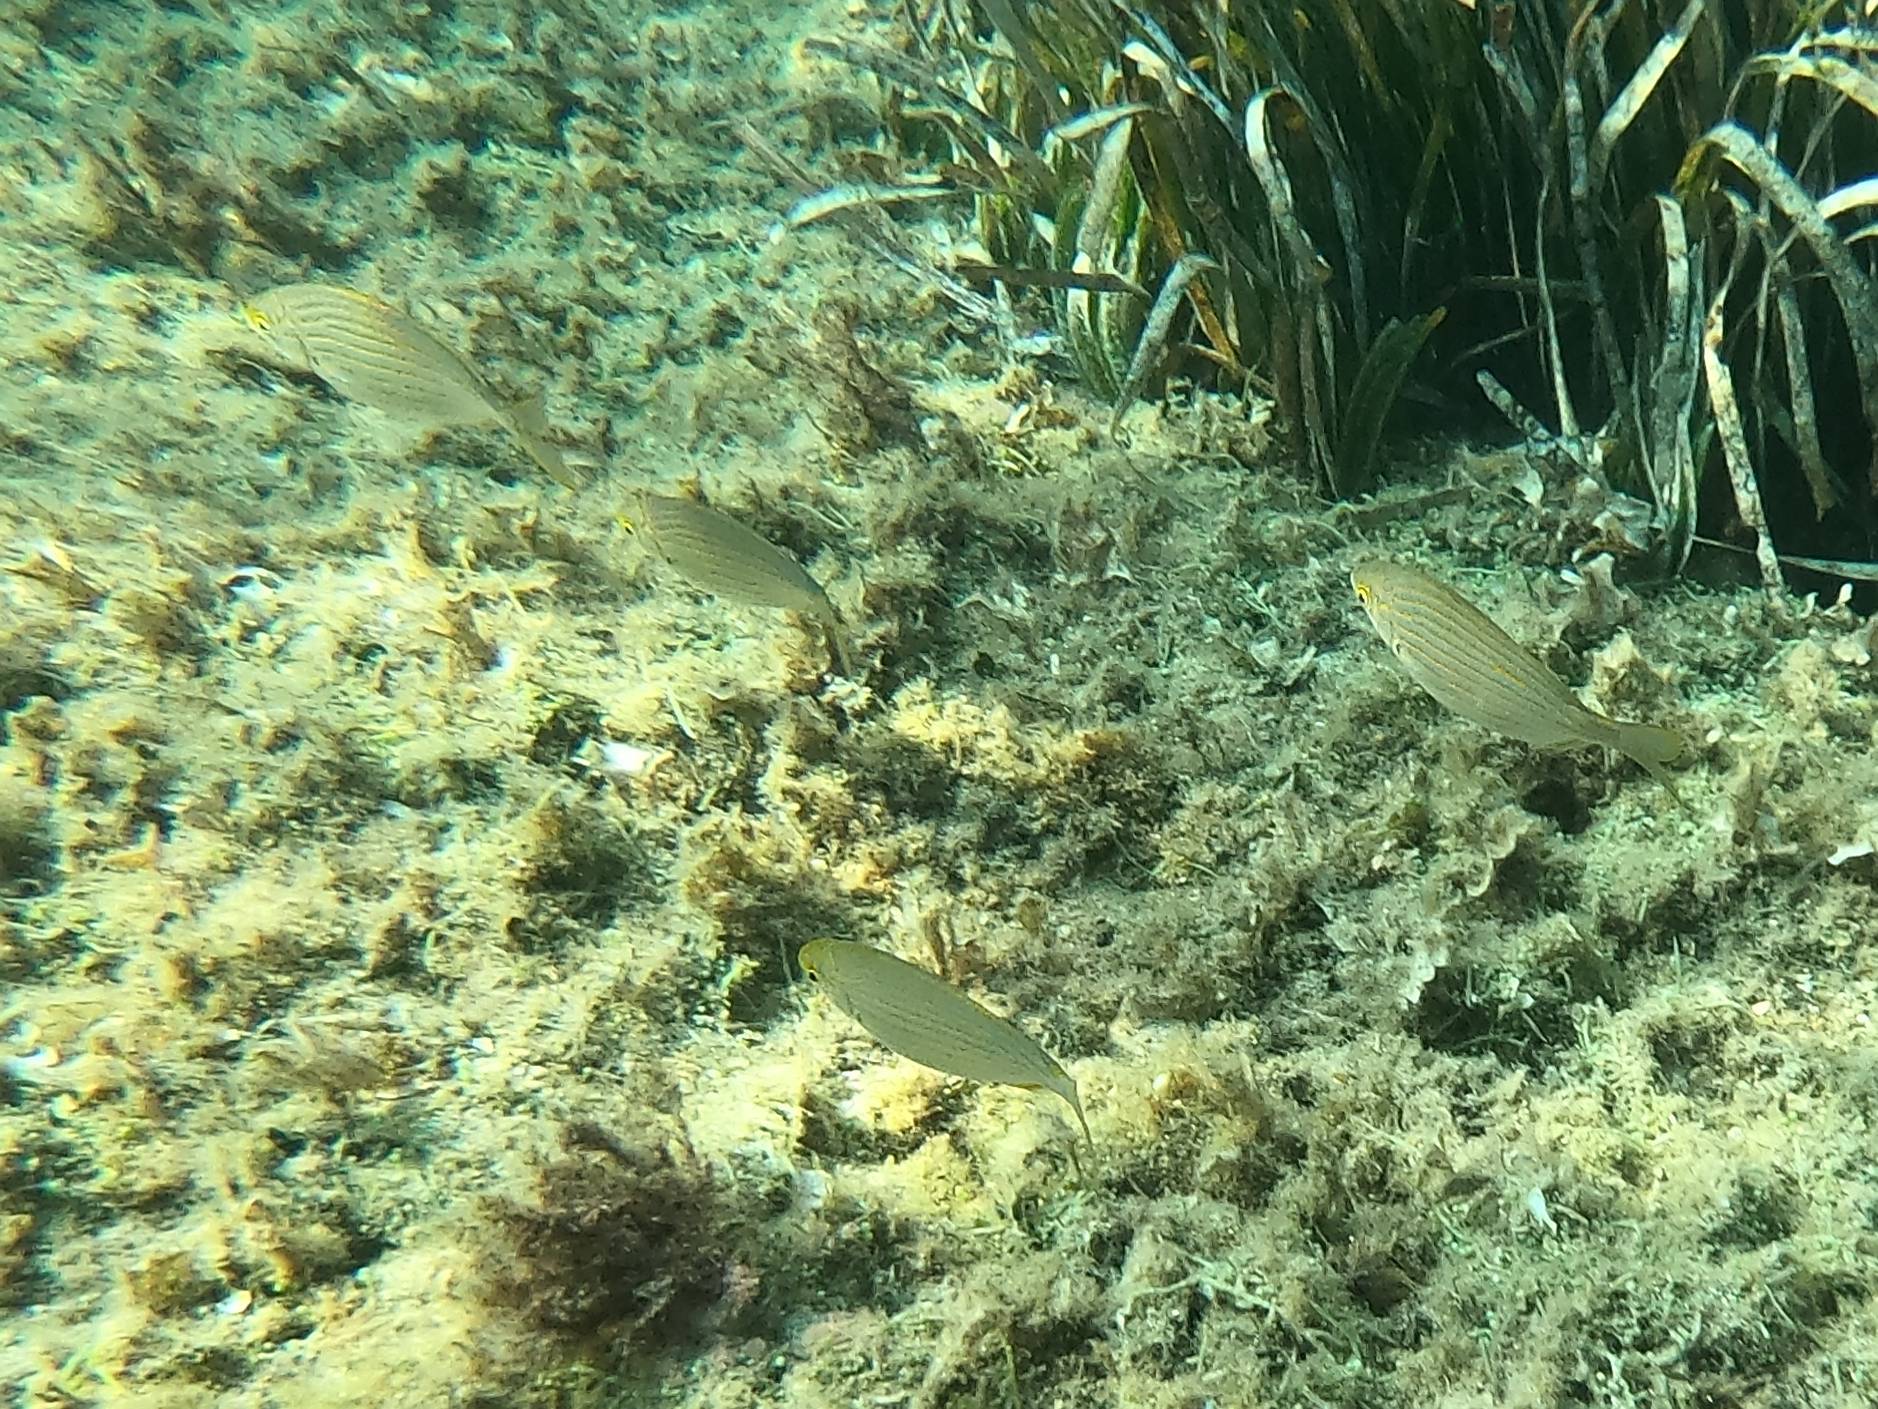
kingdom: Animalia
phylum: Chordata
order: Perciformes
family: Sparidae
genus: Sarpa
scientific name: Sarpa salpa
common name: Salema
